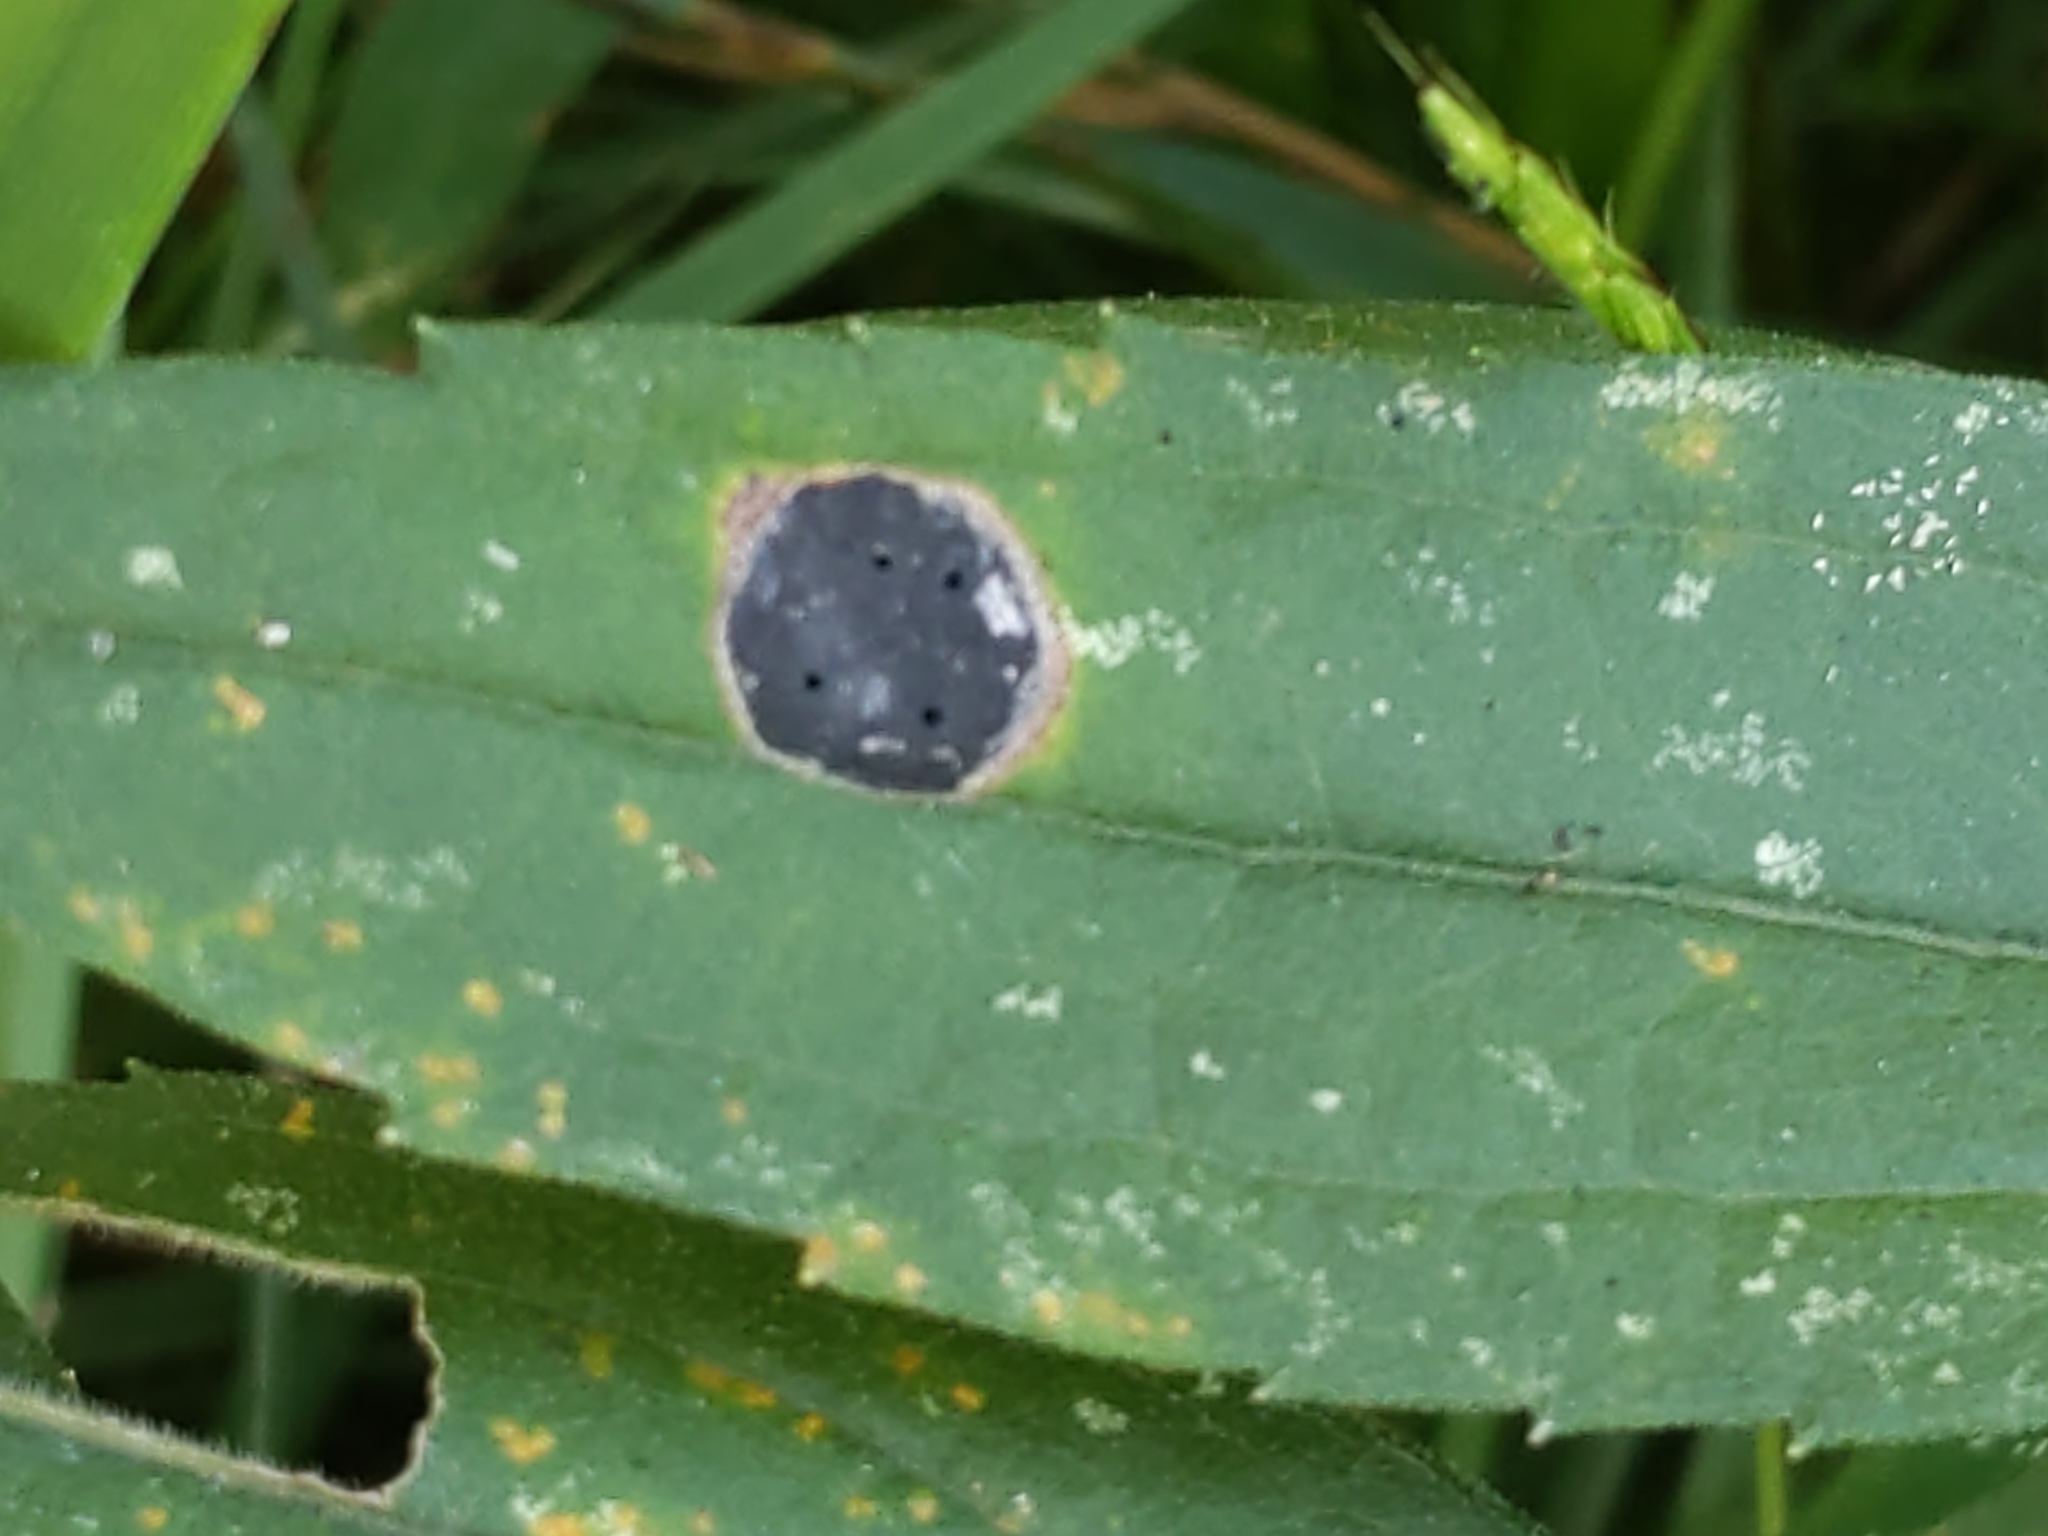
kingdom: Animalia
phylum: Arthropoda
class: Insecta
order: Diptera
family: Cecidomyiidae
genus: Asteromyia
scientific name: Asteromyia carbonifera
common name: Carbonifera goldenrod gall midge
